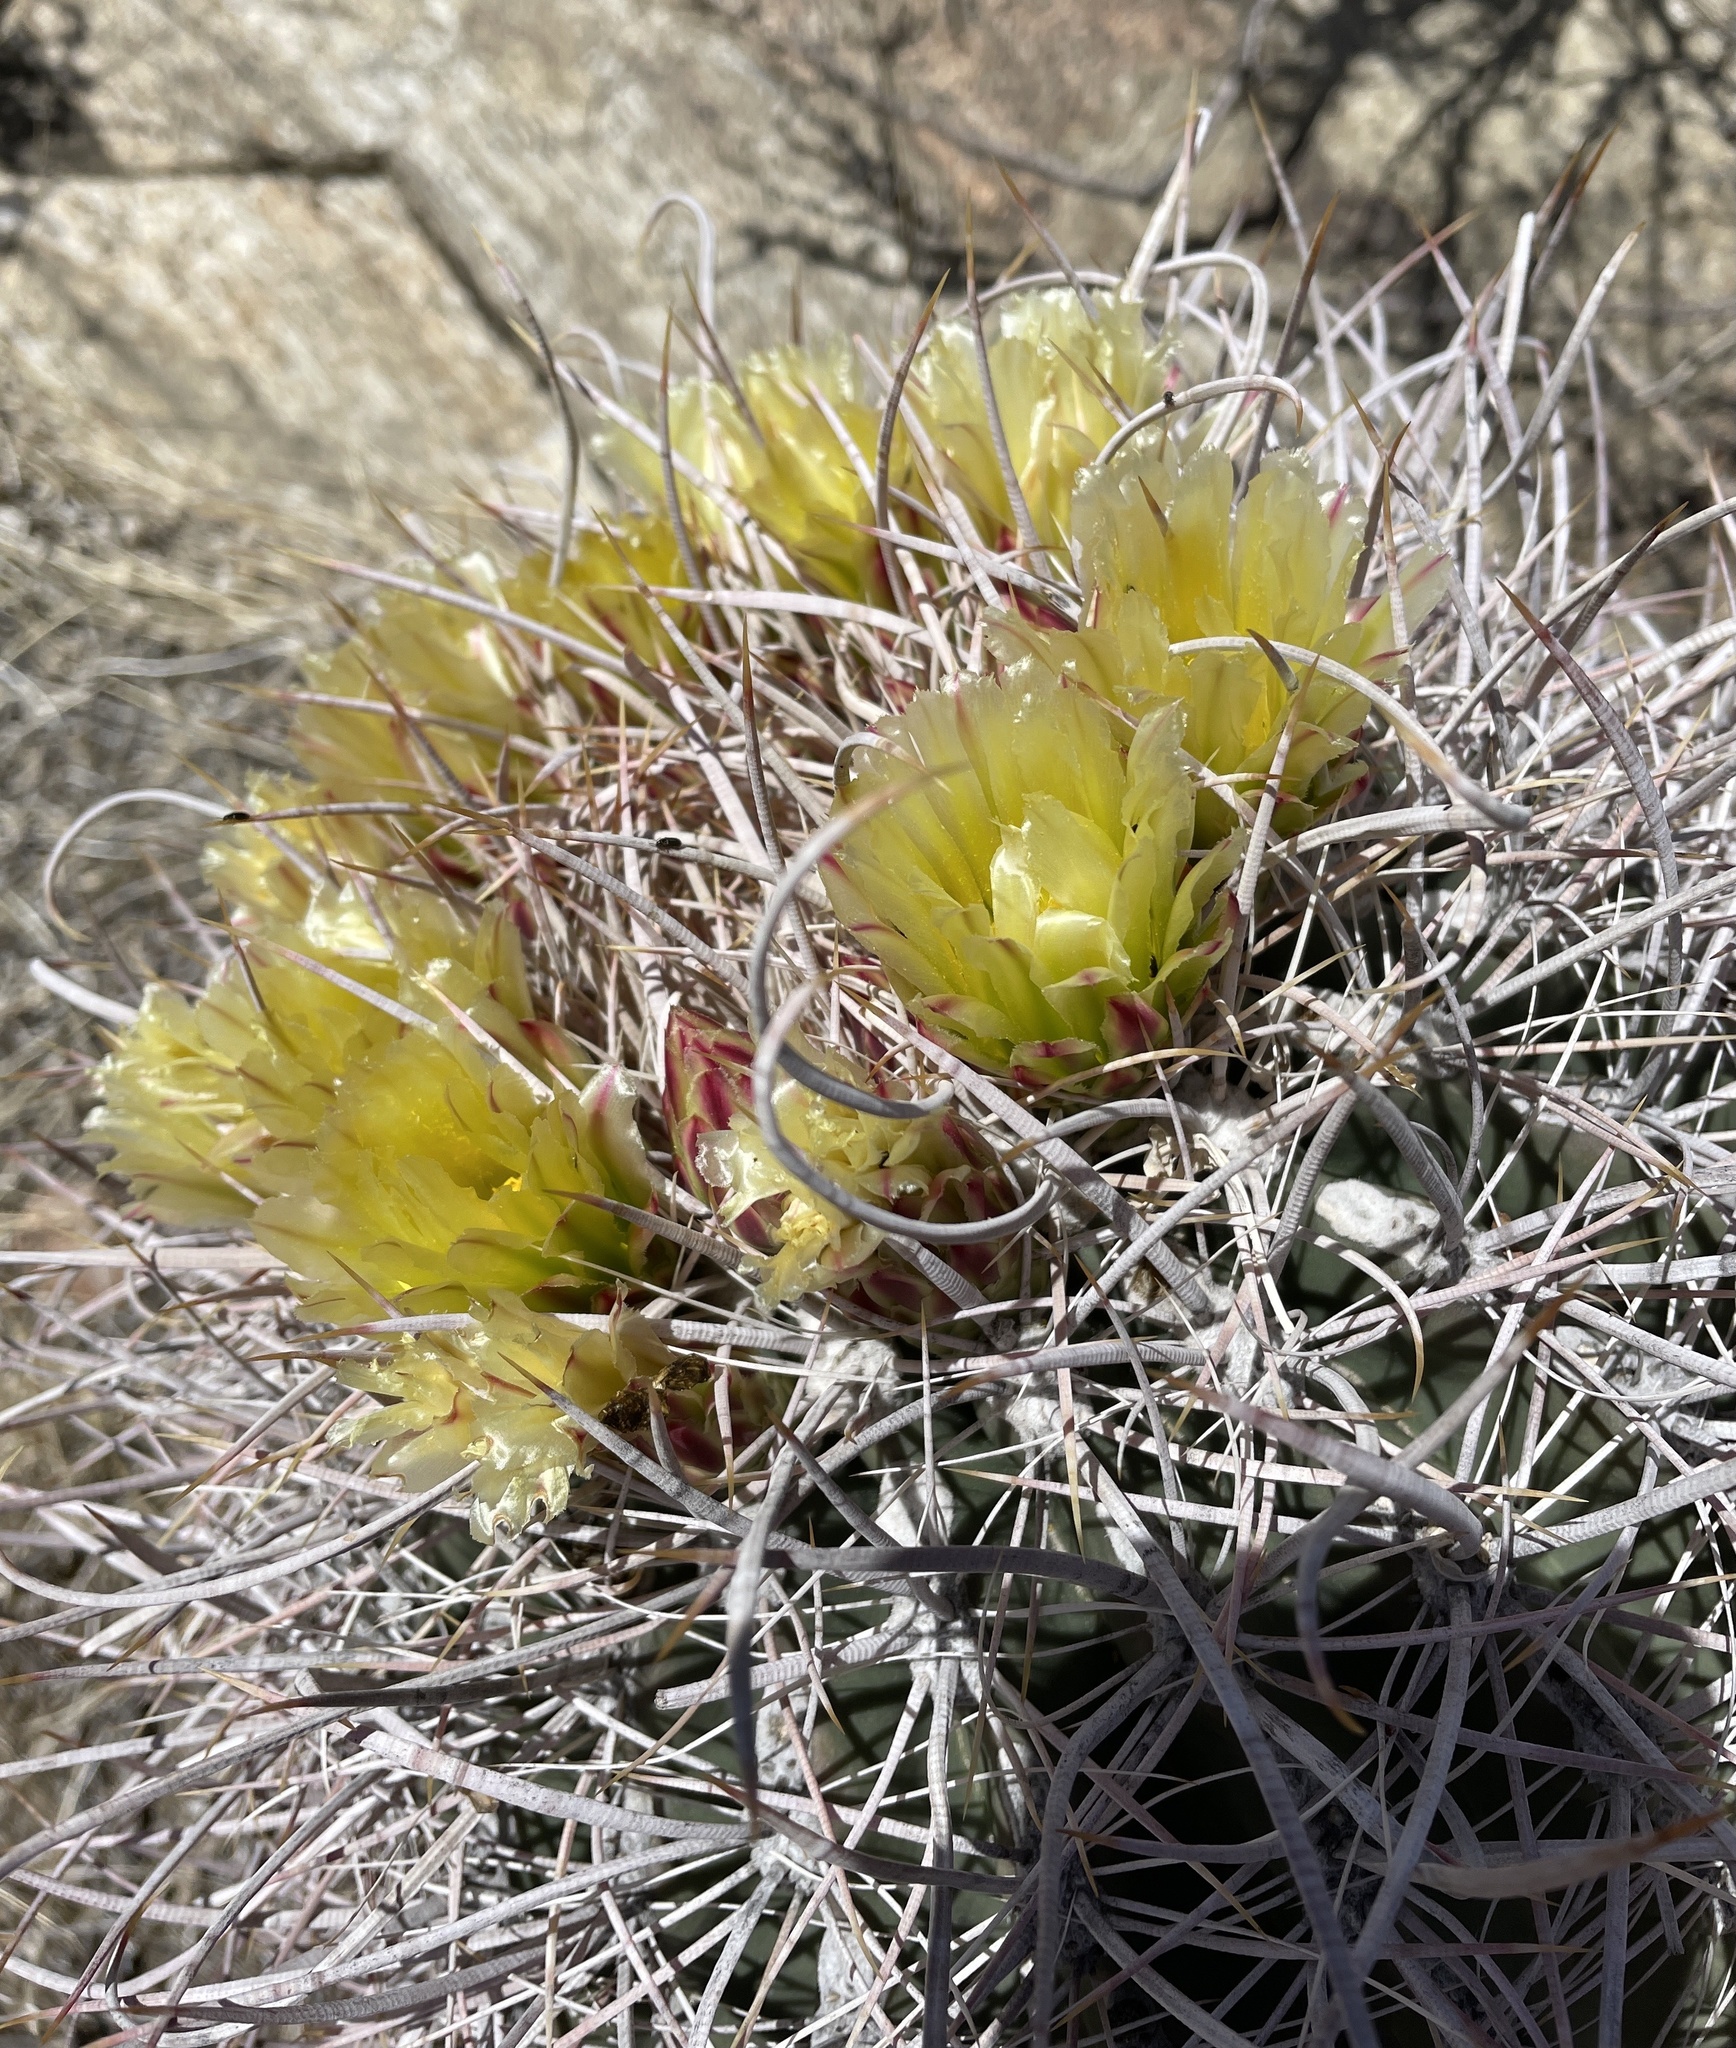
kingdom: Plantae
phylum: Tracheophyta
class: Magnoliopsida
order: Caryophyllales
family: Cactaceae
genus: Ferocactus
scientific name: Ferocactus cylindraceus
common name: California barrel cactus
